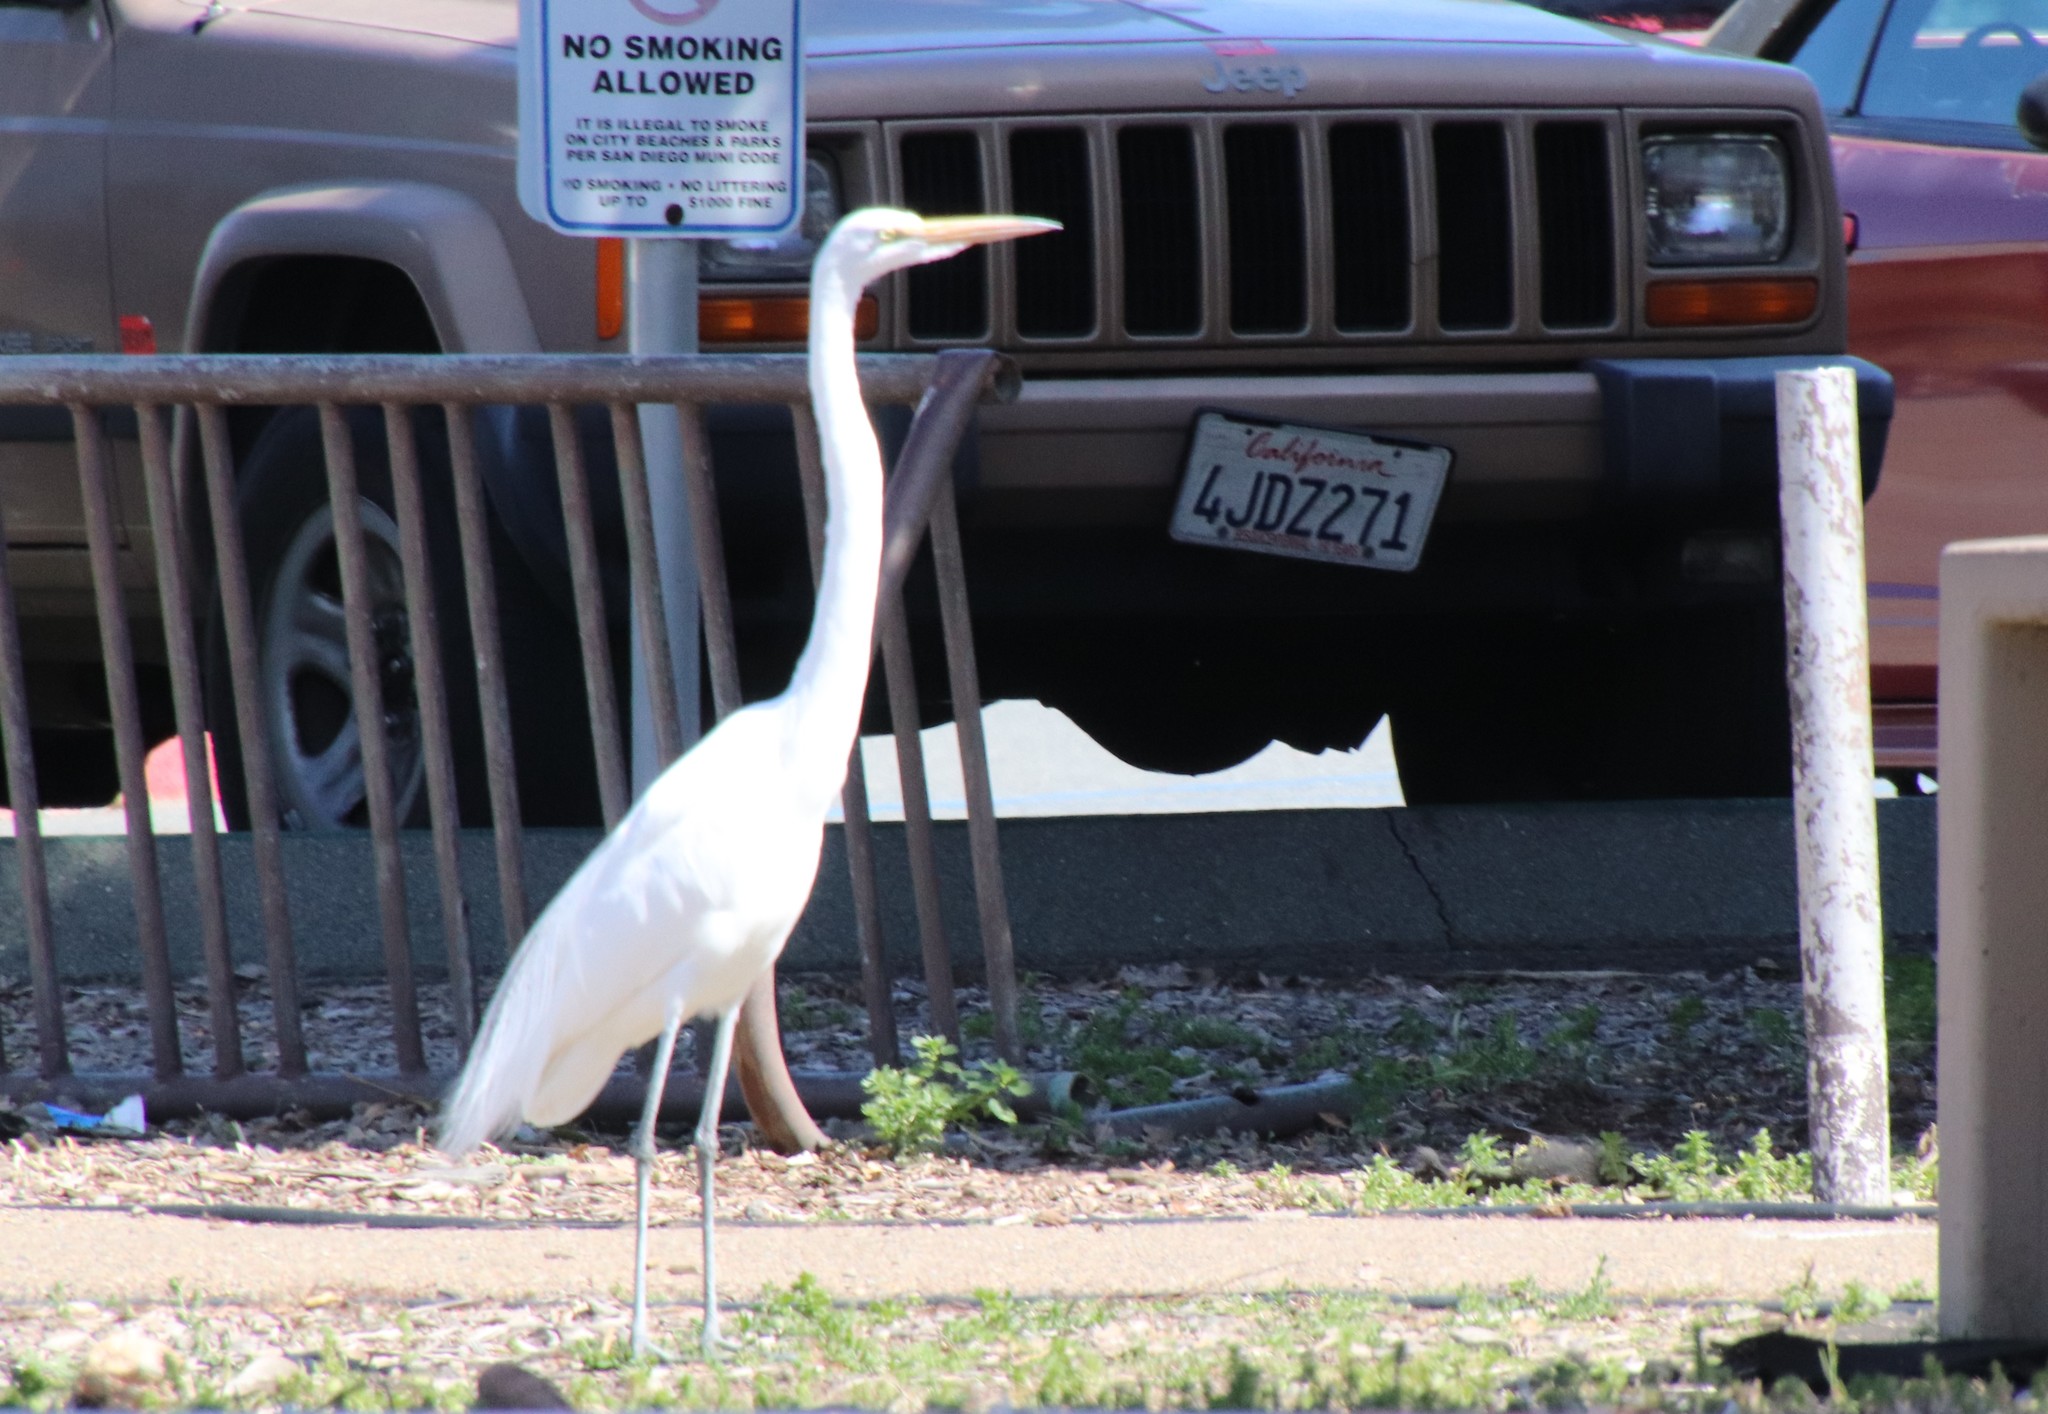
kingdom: Animalia
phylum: Chordata
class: Aves
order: Pelecaniformes
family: Ardeidae
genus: Ardea
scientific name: Ardea alba
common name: Great egret
